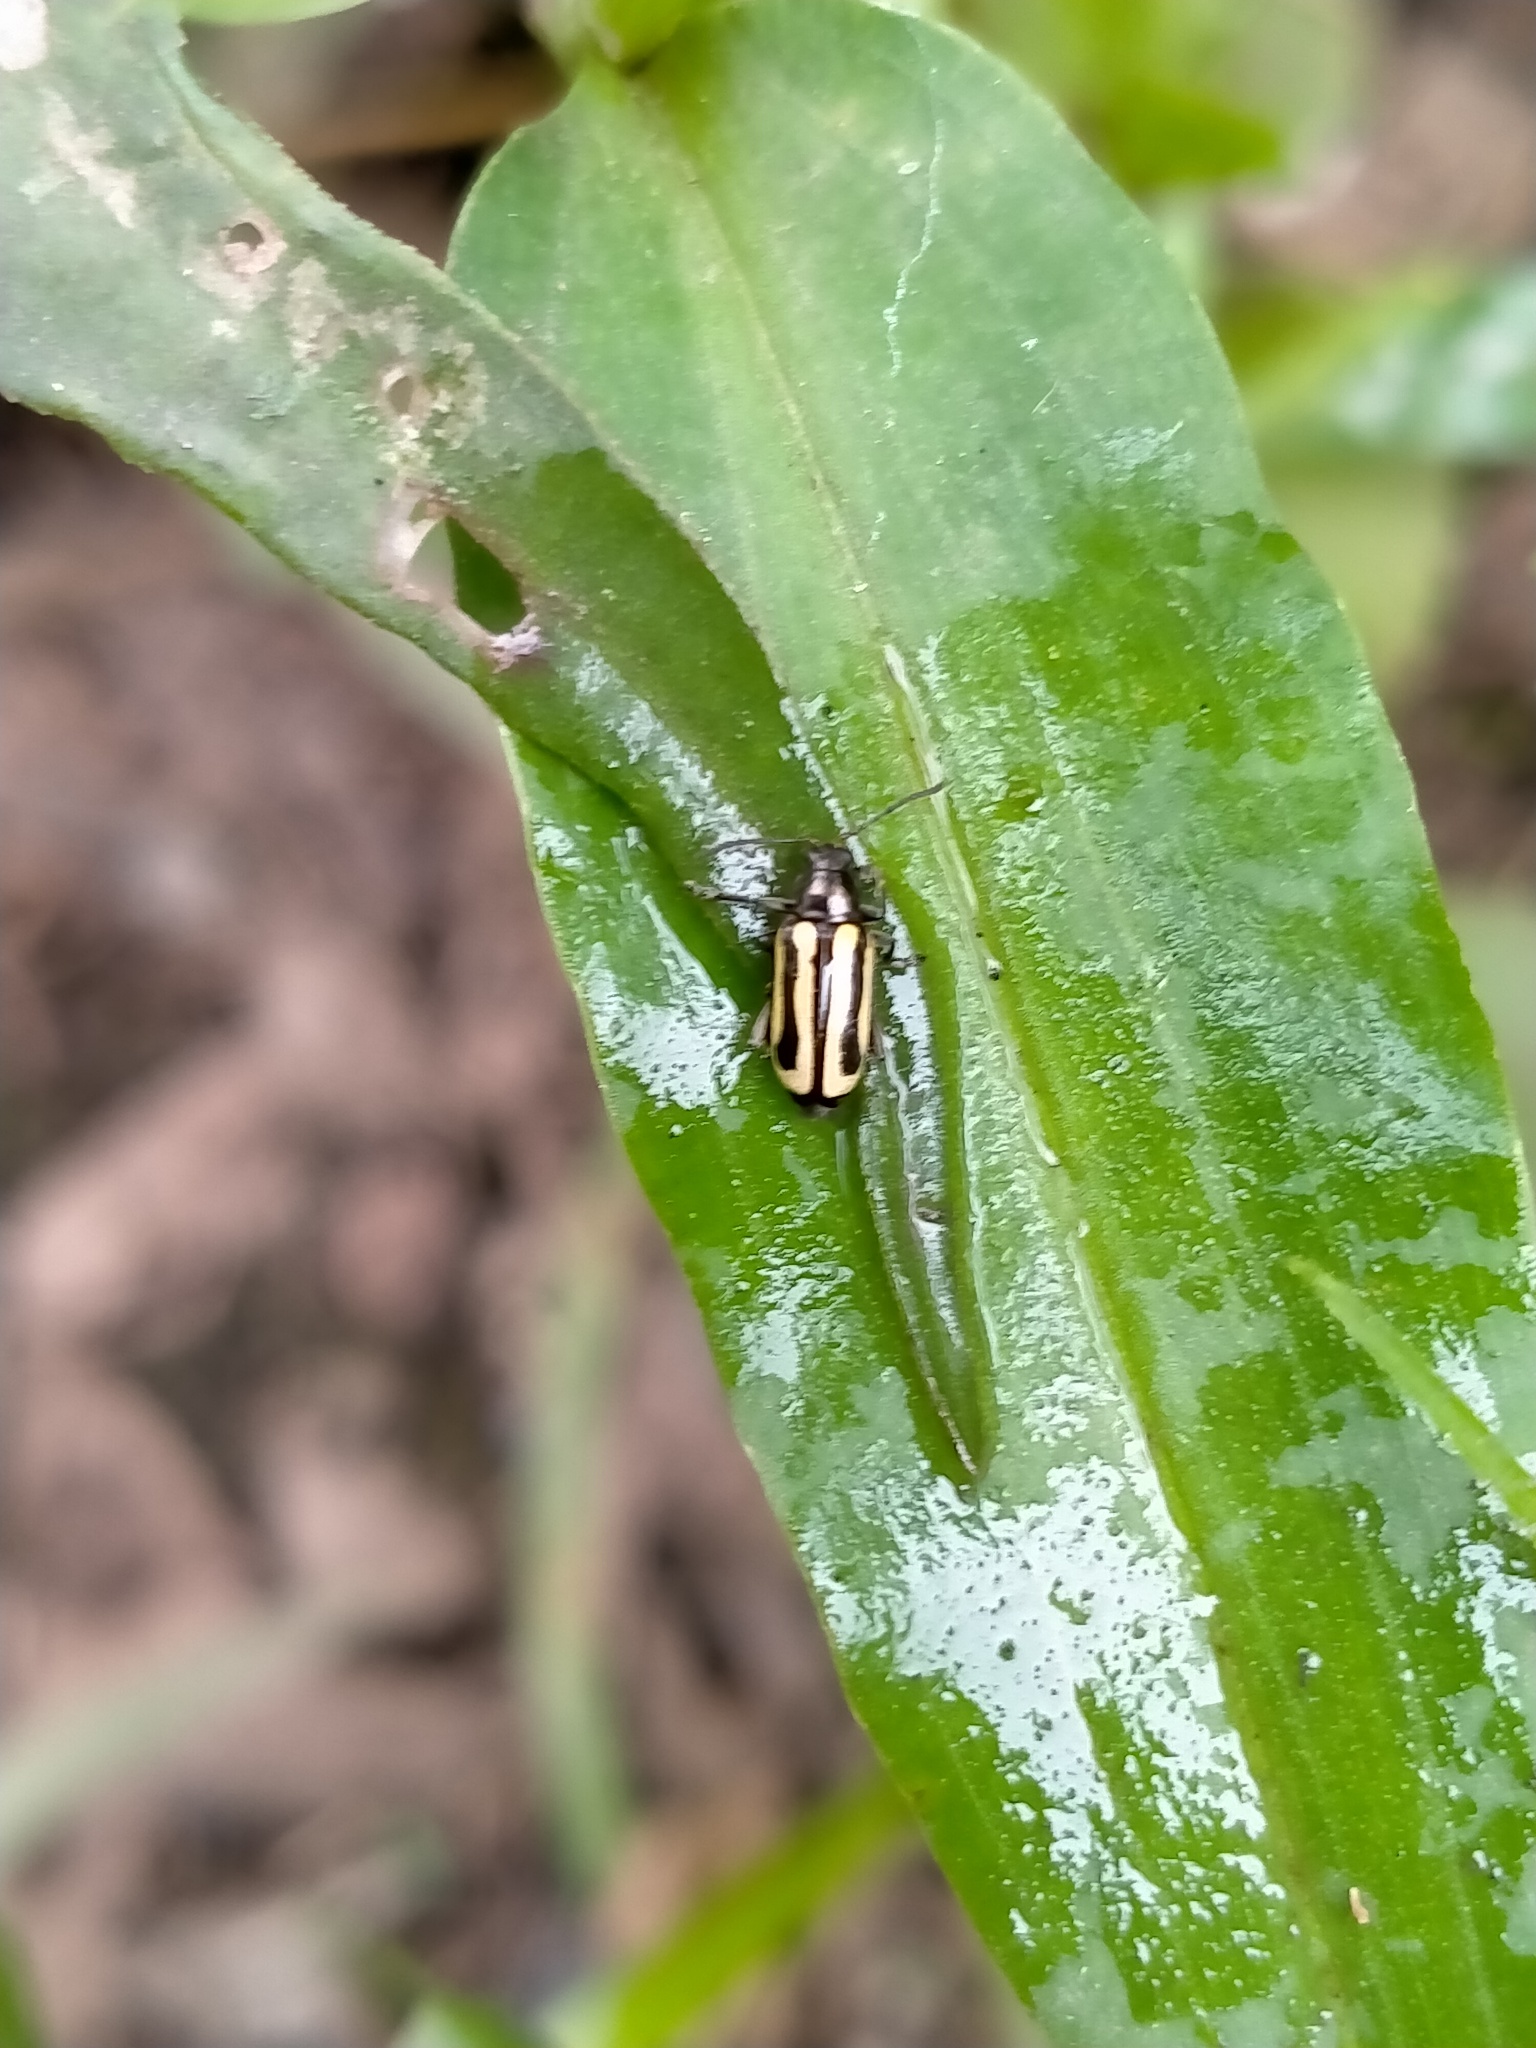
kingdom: Animalia
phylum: Arthropoda
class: Insecta
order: Coleoptera
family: Chrysomelidae
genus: Agasicles
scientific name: Agasicles hygrophila
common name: Alligatorweed flea beetle
